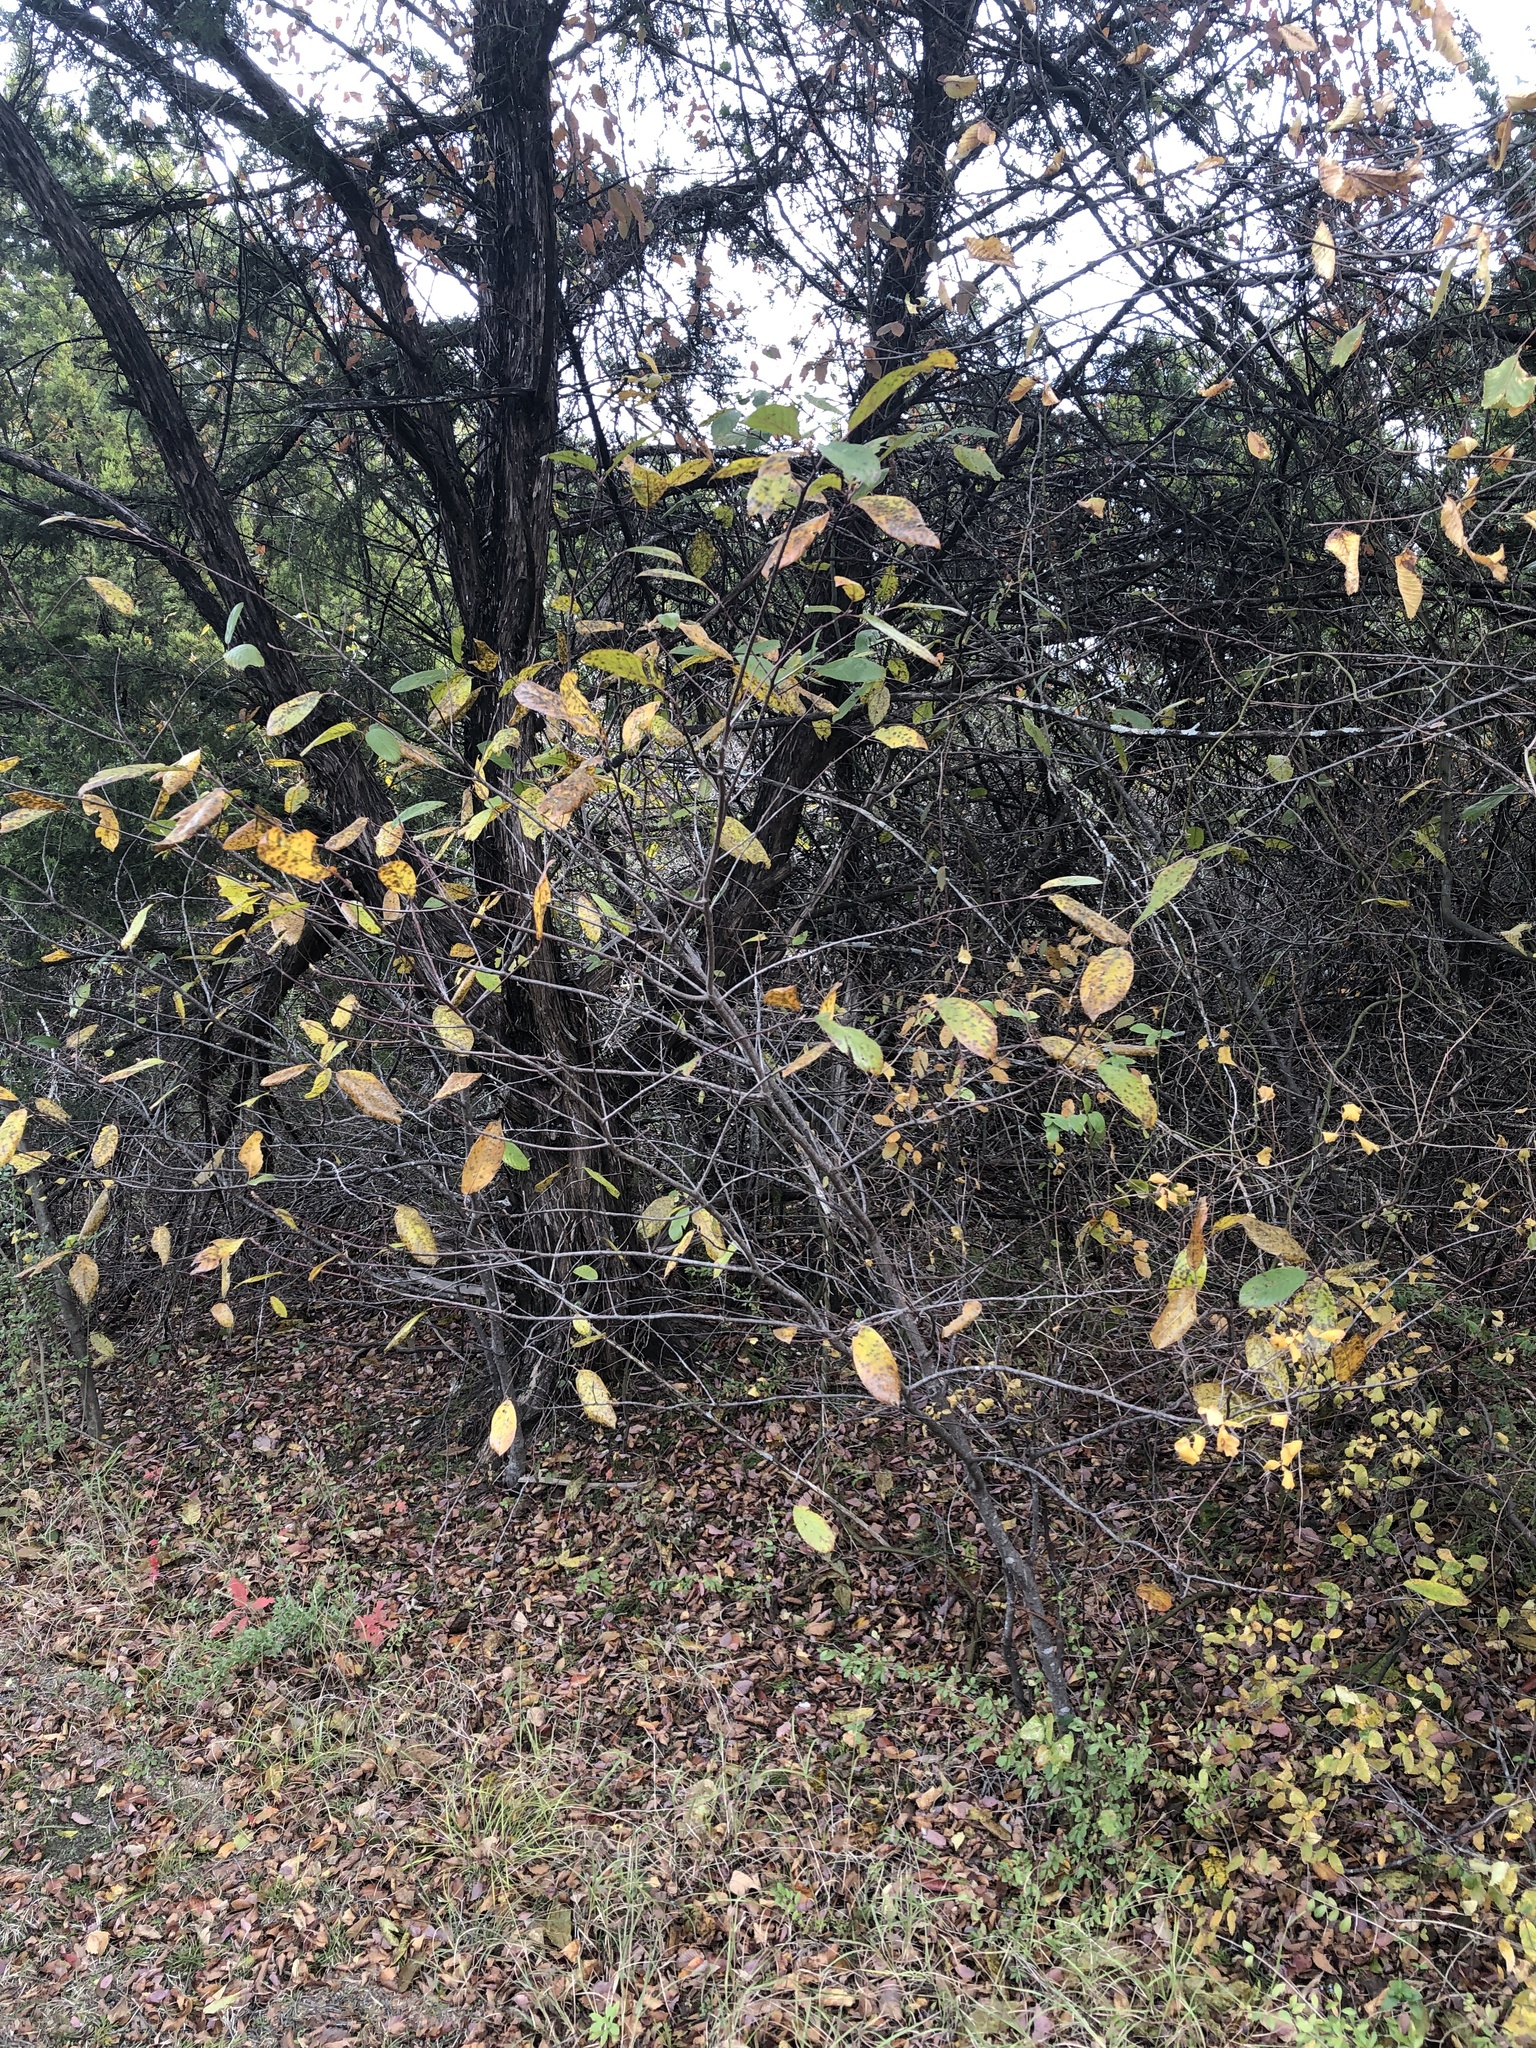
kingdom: Plantae
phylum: Tracheophyta
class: Magnoliopsida
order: Rosales
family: Rhamnaceae
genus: Frangula
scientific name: Frangula caroliniana
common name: Carolina buckthorn
